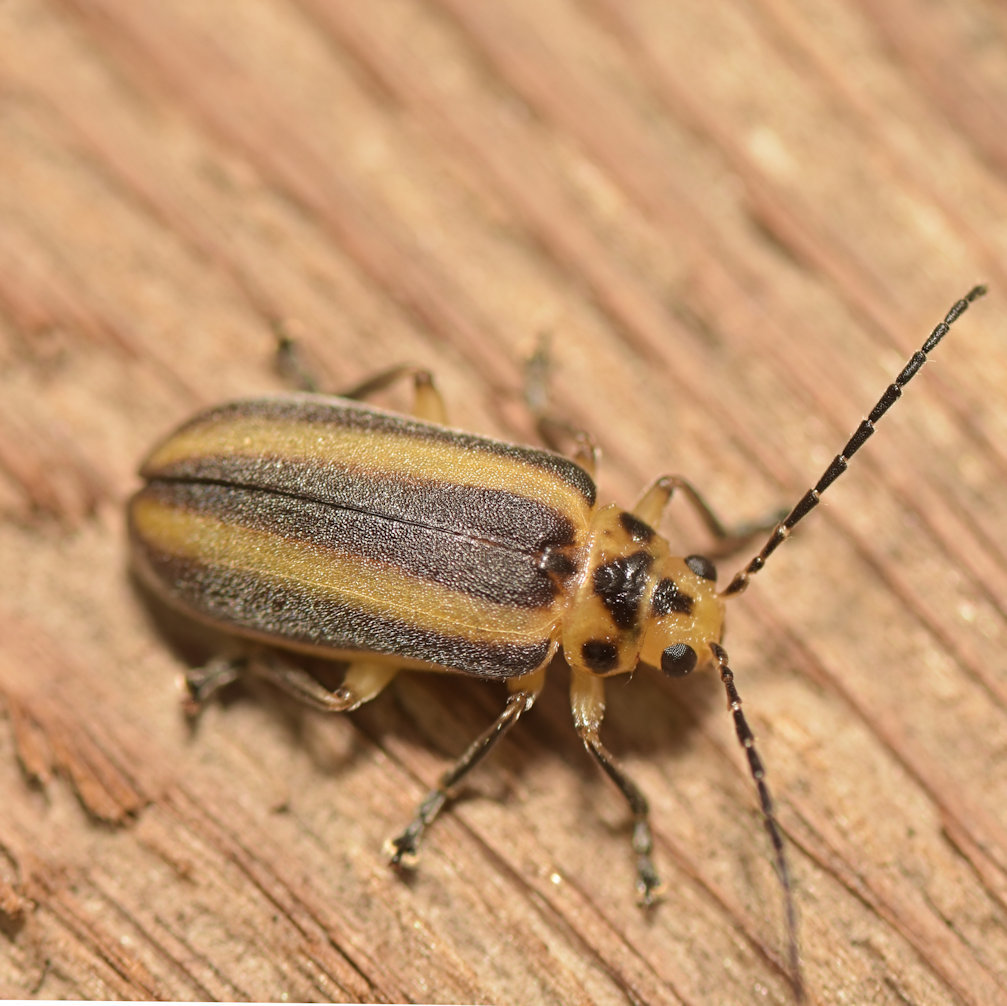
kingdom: Animalia
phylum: Arthropoda
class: Insecta
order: Coleoptera
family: Chrysomelidae
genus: Derospidea
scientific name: Derospidea brevicollis
